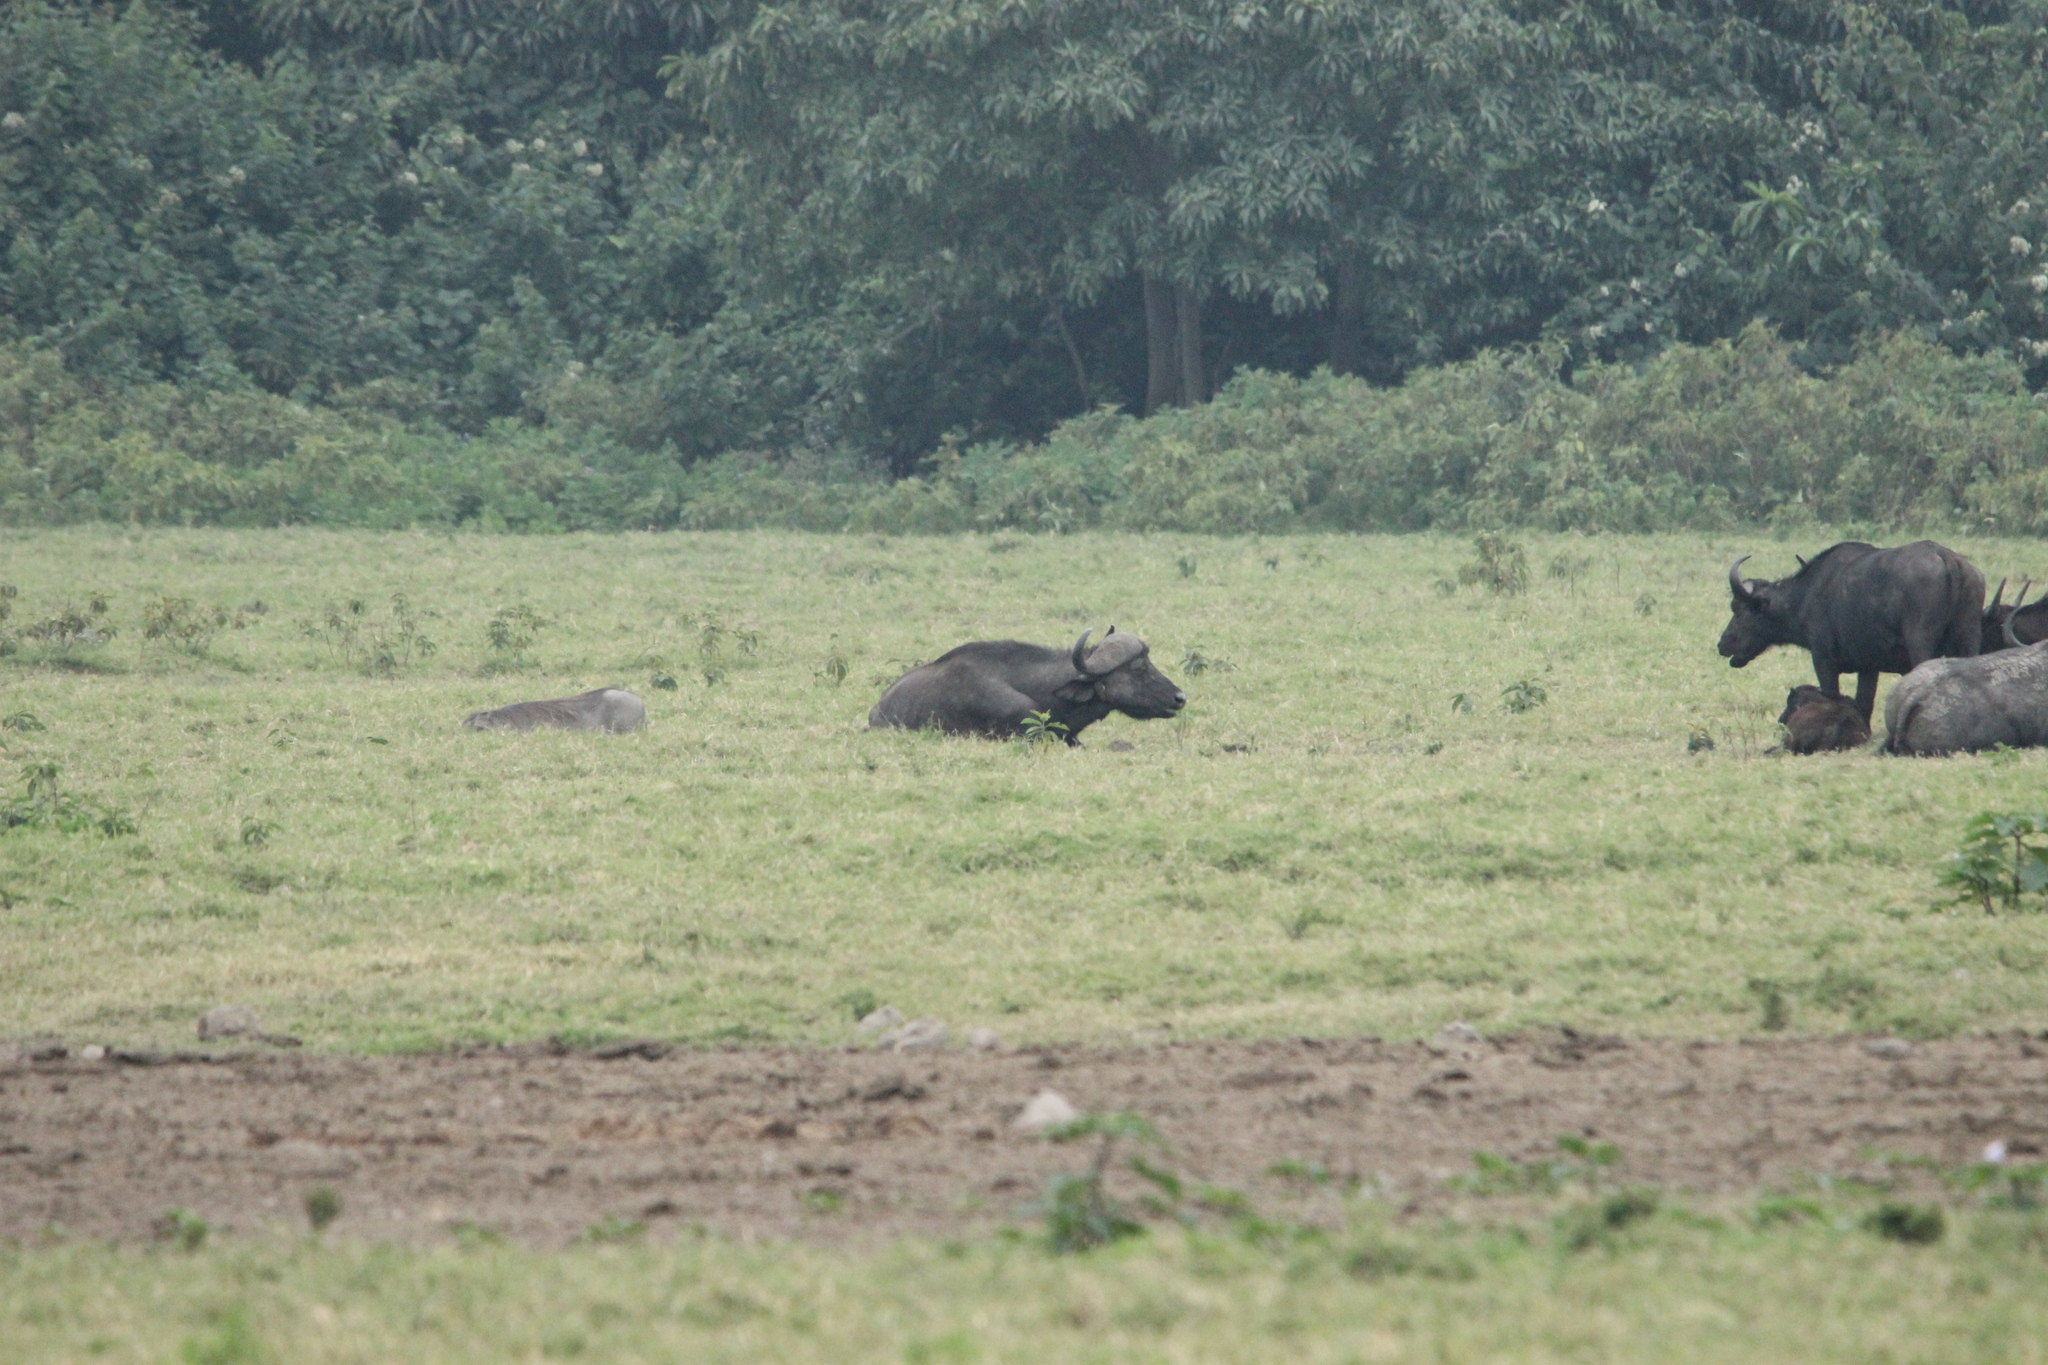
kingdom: Animalia
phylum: Chordata
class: Mammalia
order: Artiodactyla
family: Bovidae
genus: Syncerus
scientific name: Syncerus caffer
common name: African buffalo
